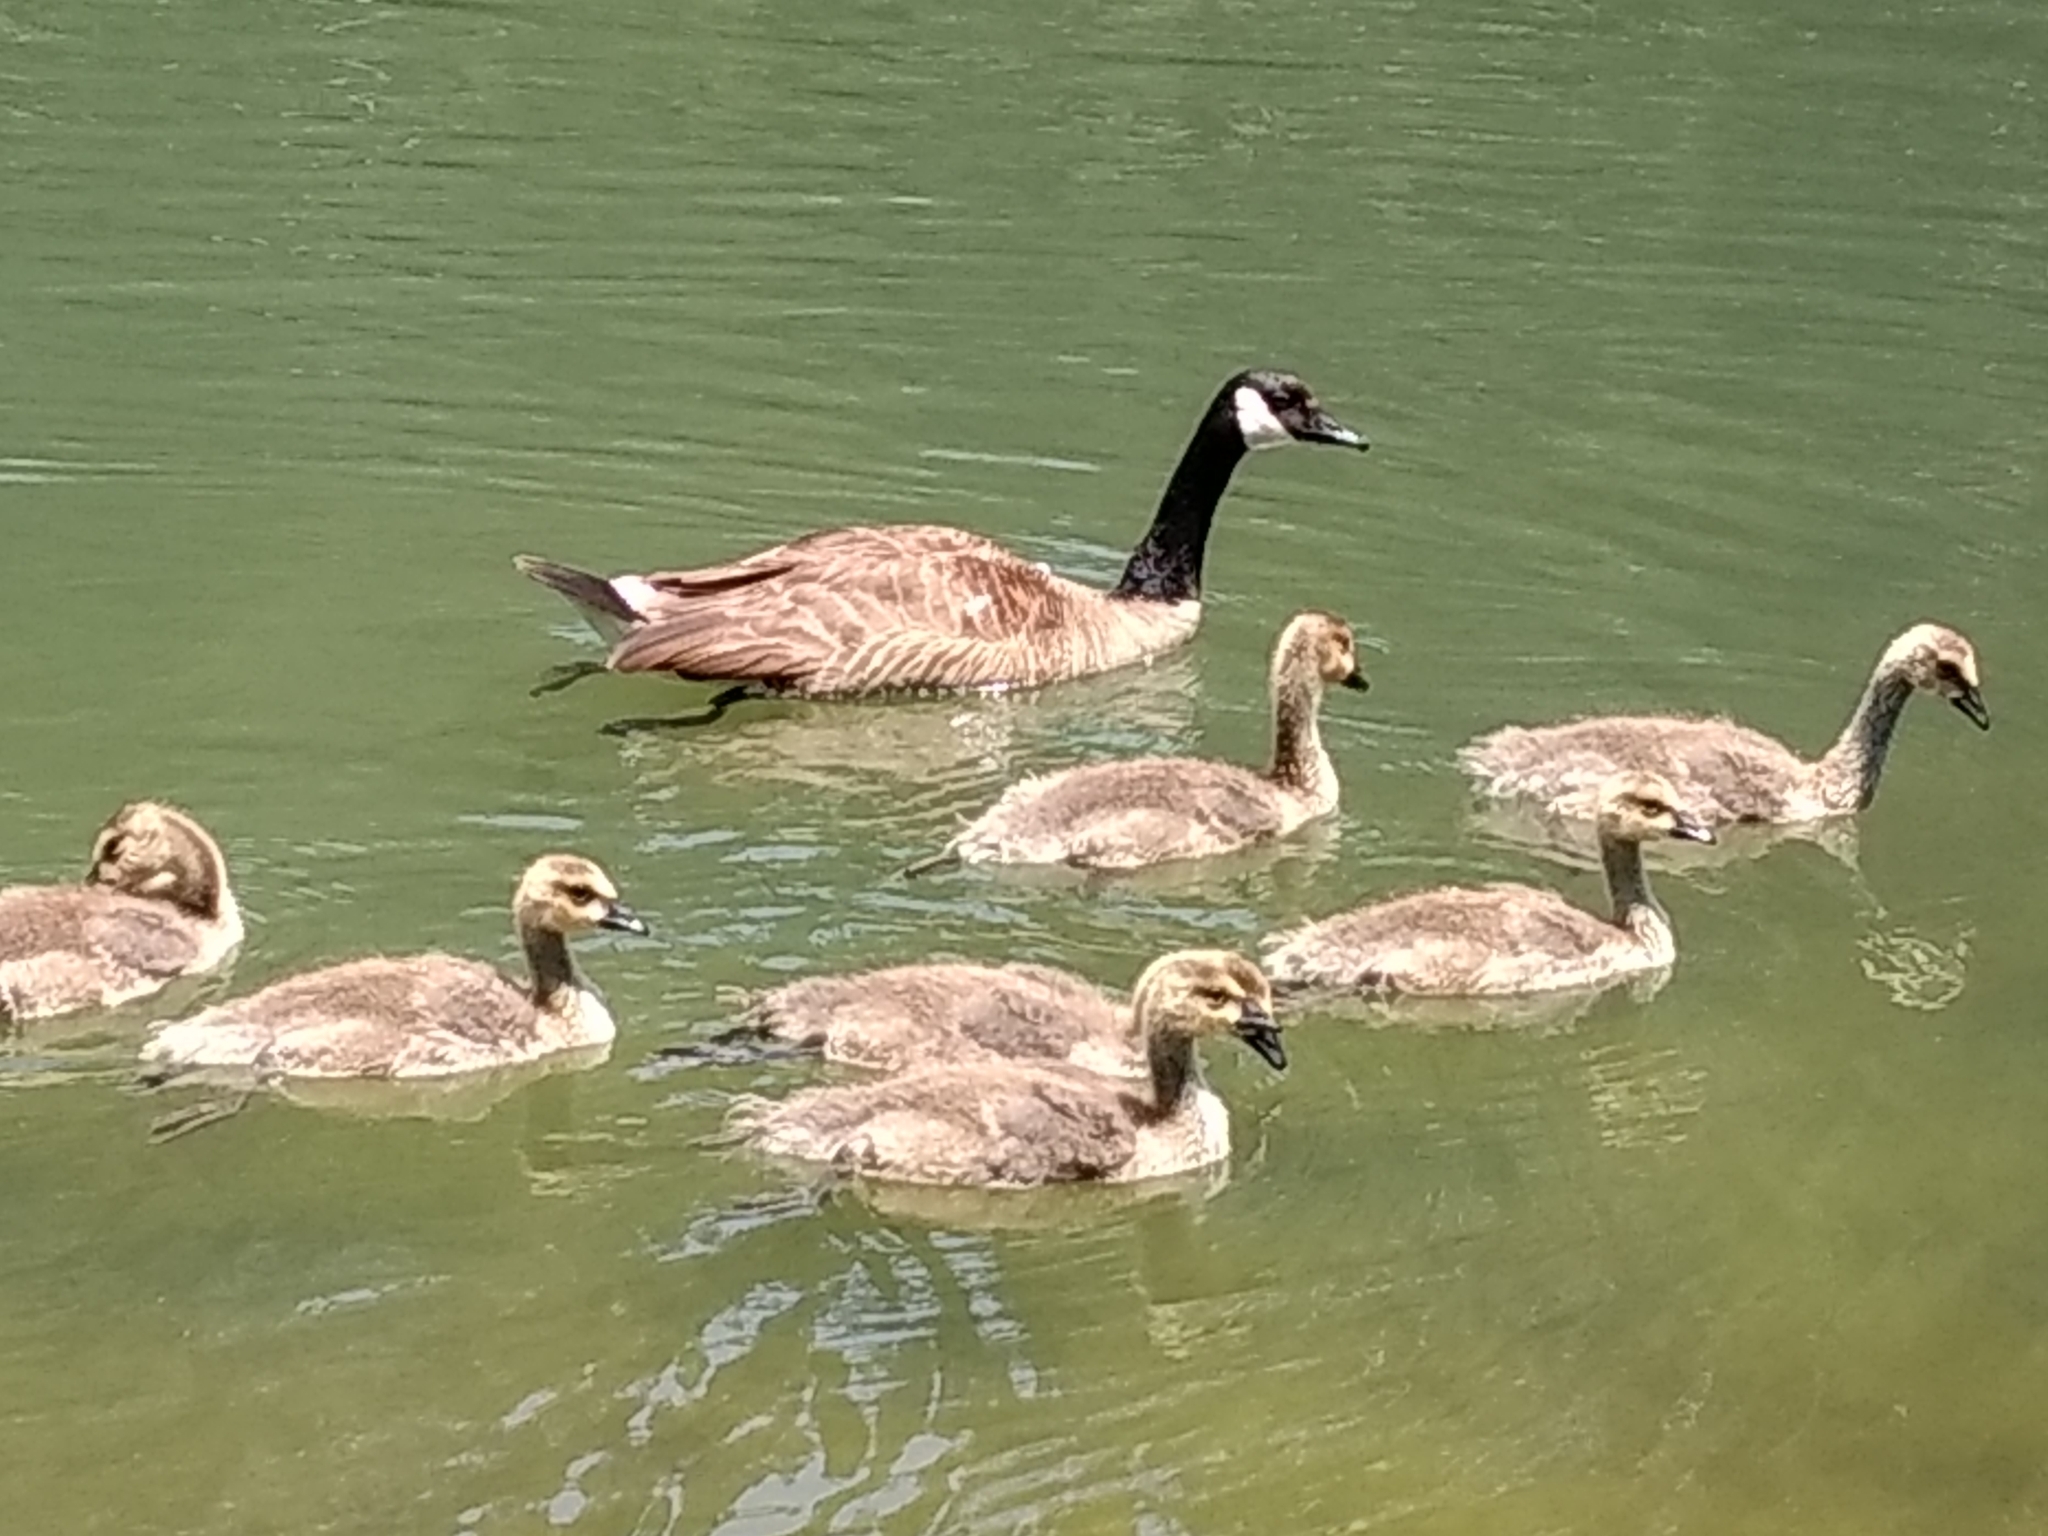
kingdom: Animalia
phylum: Chordata
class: Aves
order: Anseriformes
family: Anatidae
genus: Branta
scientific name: Branta canadensis
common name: Canada goose
